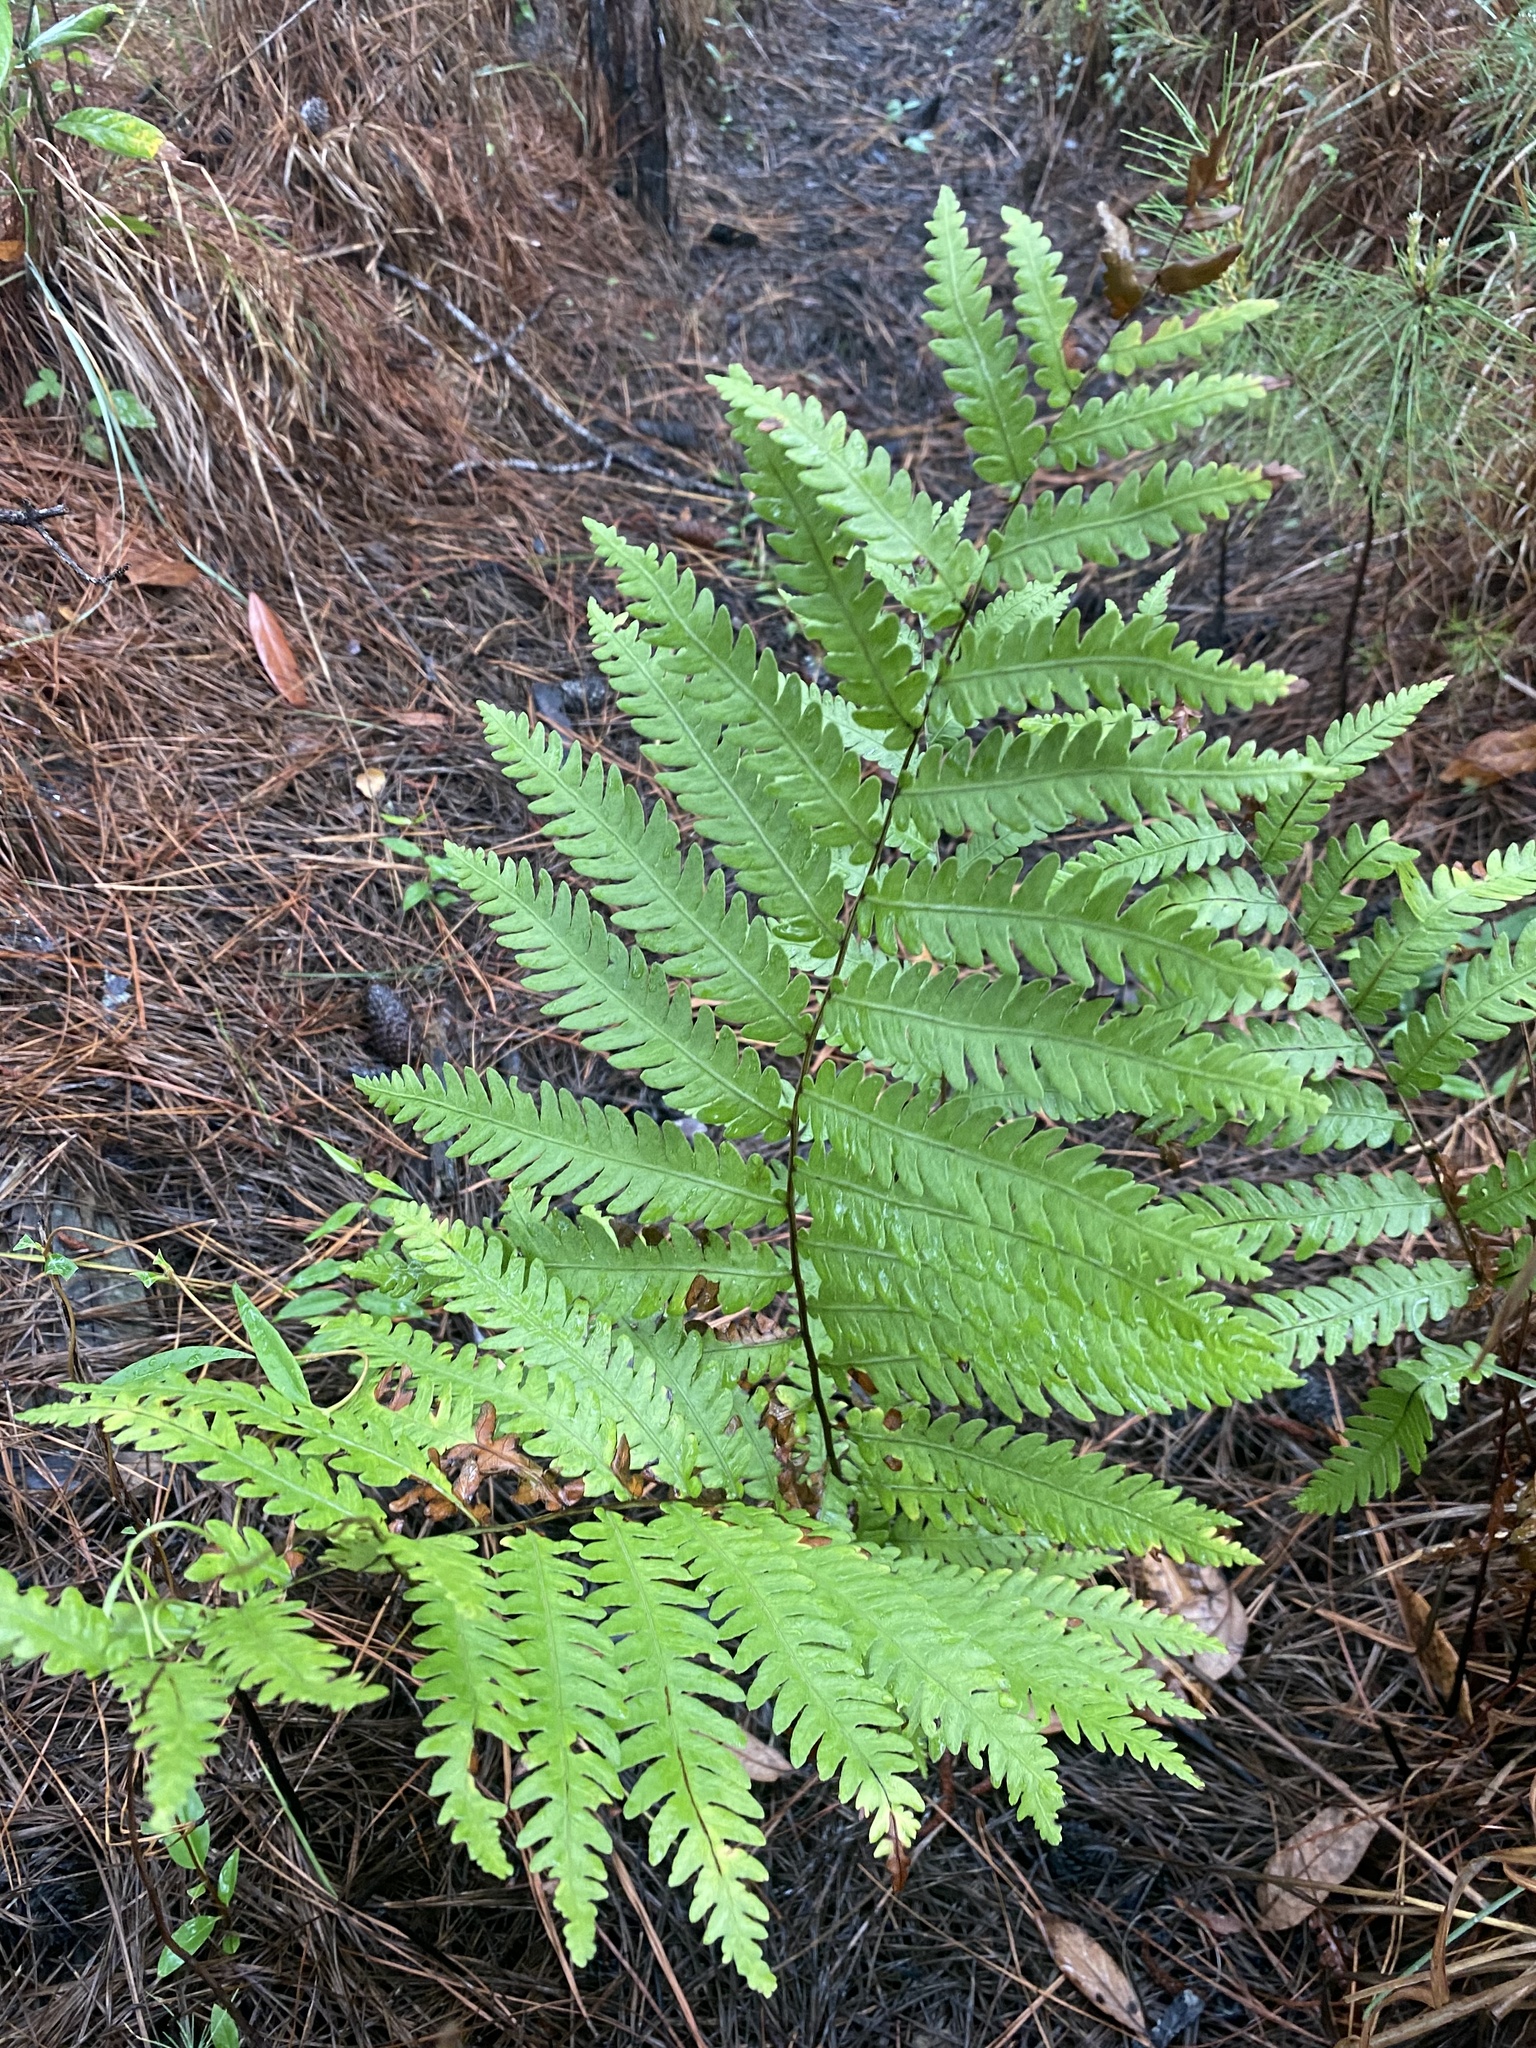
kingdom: Plantae
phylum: Tracheophyta
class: Polypodiopsida
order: Polypodiales
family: Blechnaceae
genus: Anchistea
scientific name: Anchistea virginica
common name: Virginia chain fern
